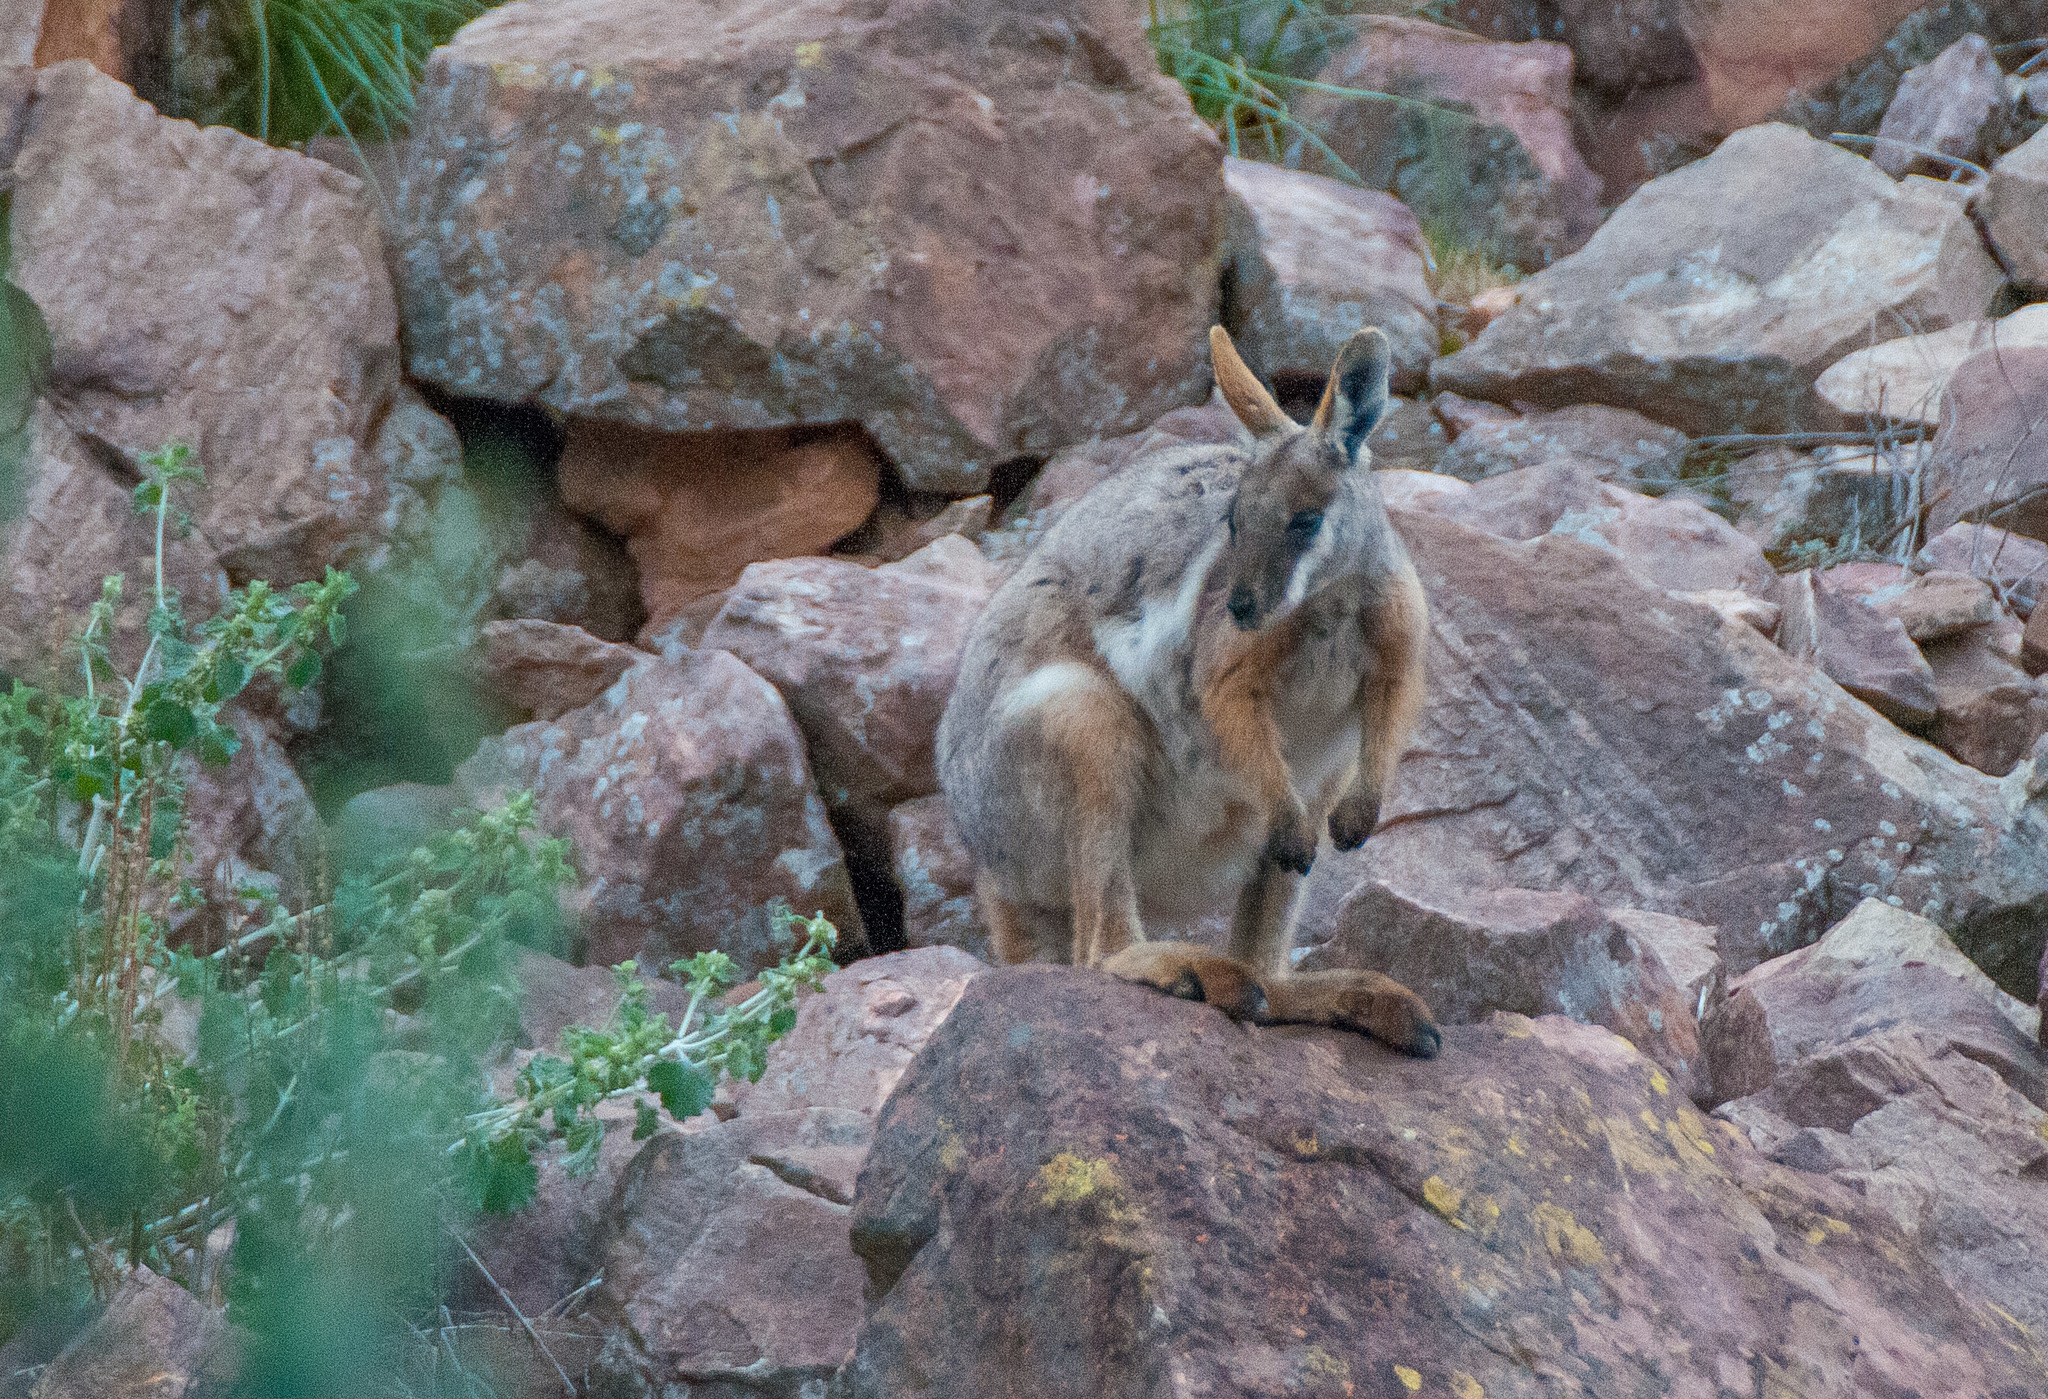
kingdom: Animalia
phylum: Chordata
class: Mammalia
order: Diprotodontia
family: Macropodidae
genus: Petrogale
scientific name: Petrogale xanthopus
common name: Yellow-footed rock-wallaby
